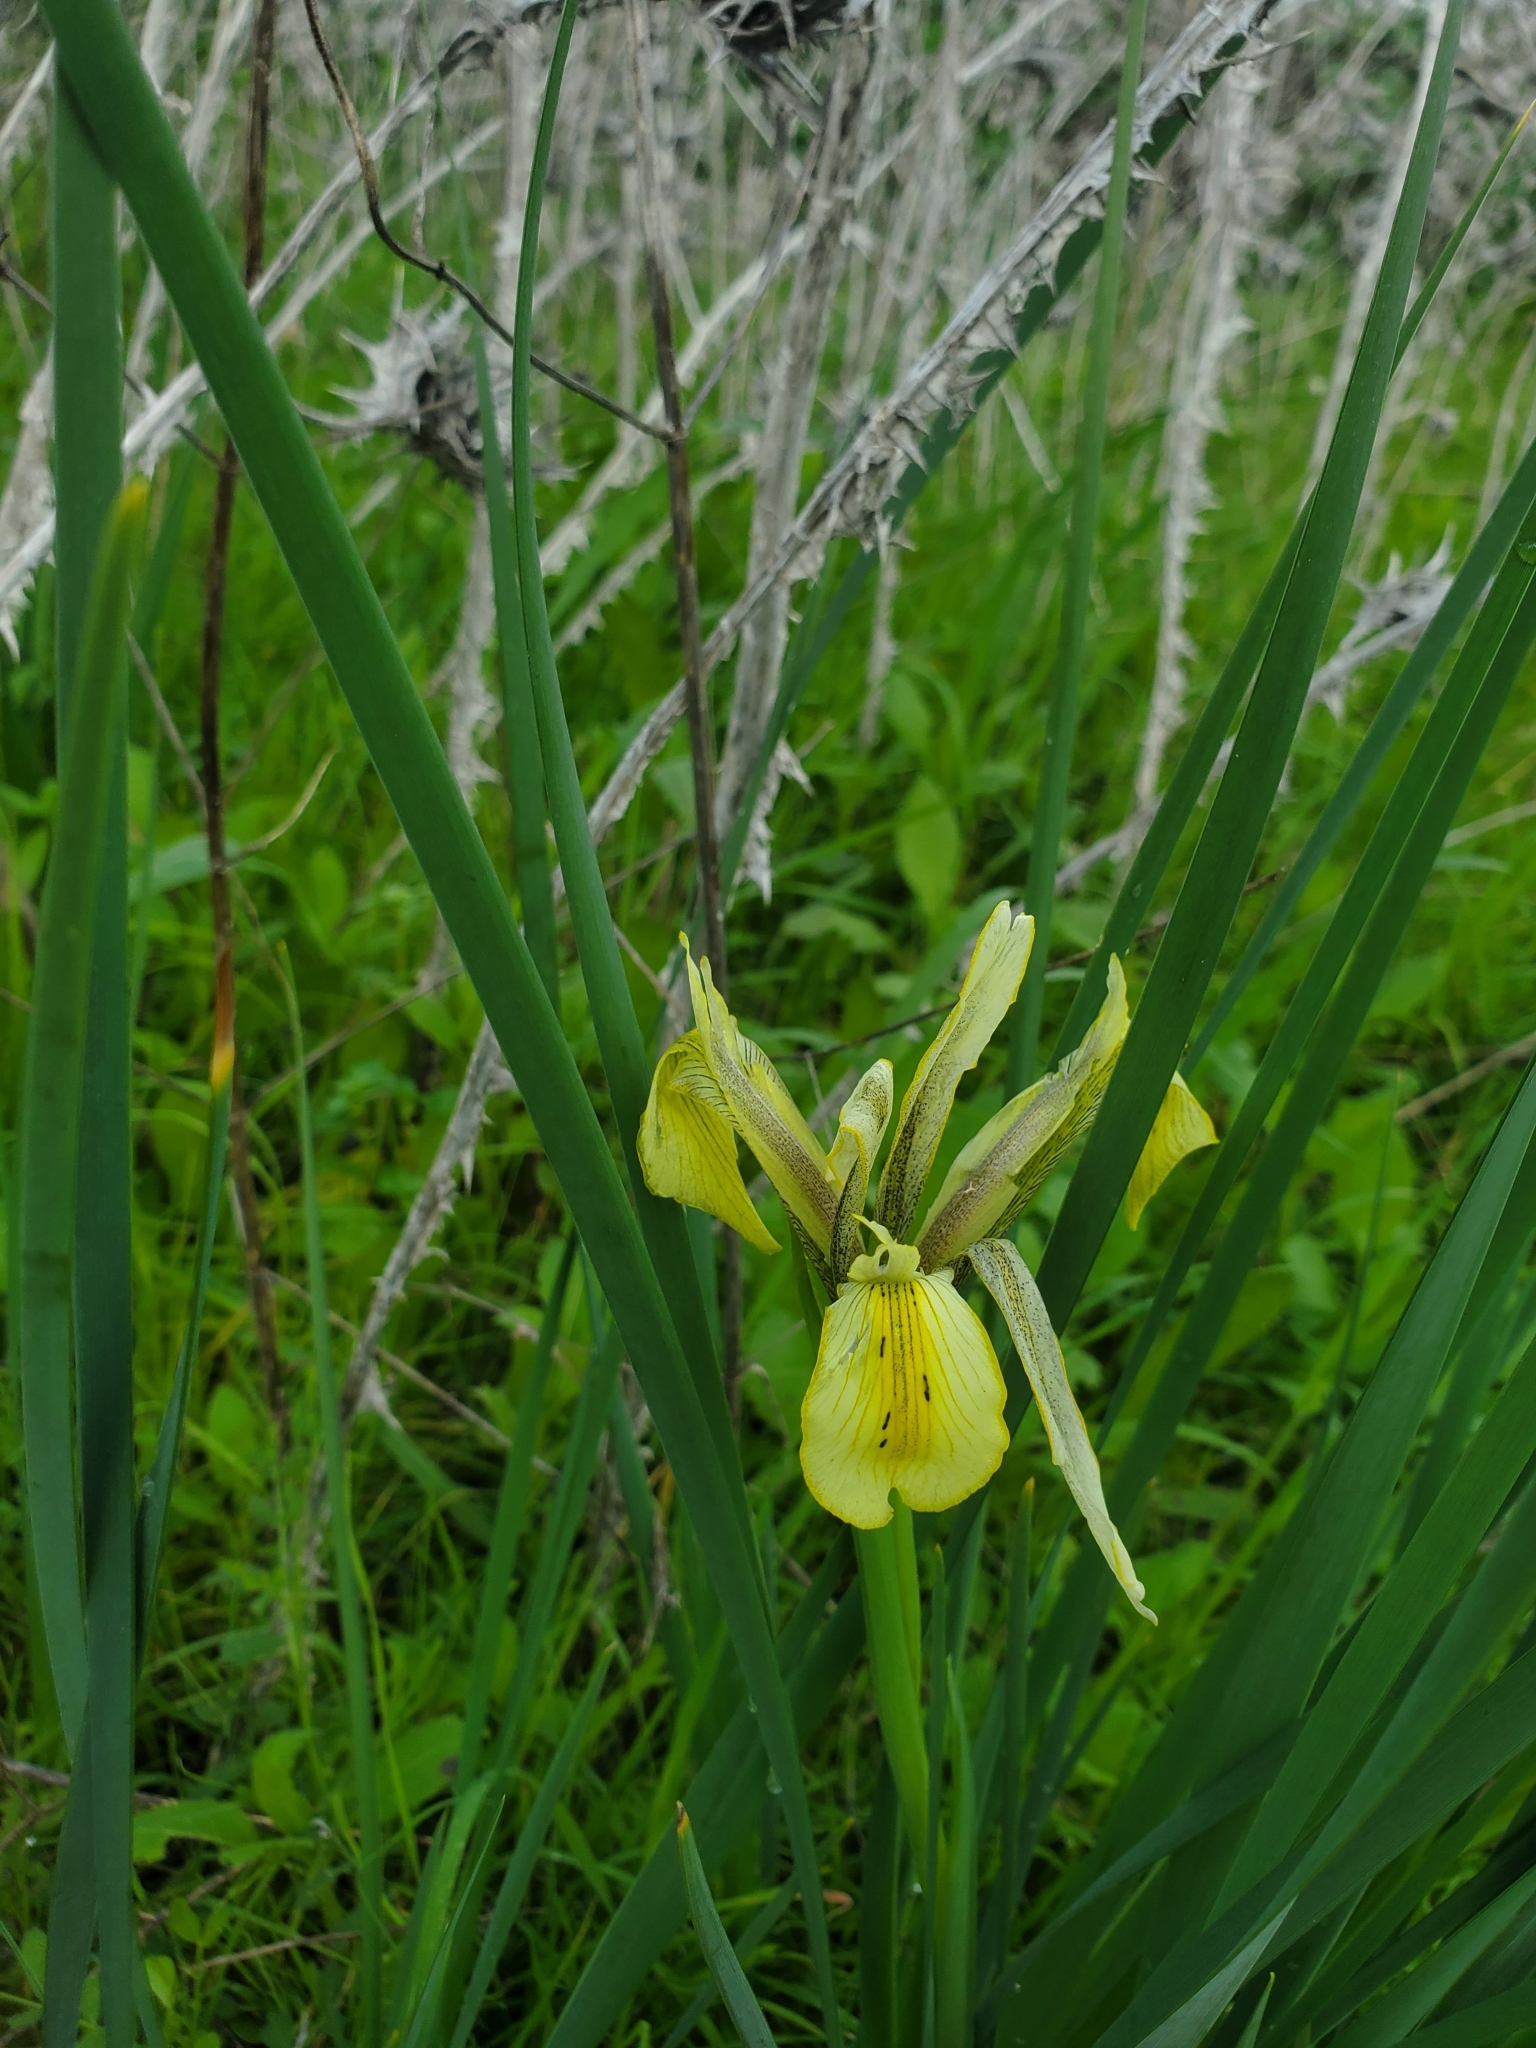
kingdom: Plantae
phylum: Tracheophyta
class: Liliopsida
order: Asparagales
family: Iridaceae
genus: Iris
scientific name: Iris grant-duffii
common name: Grant duff's iris
